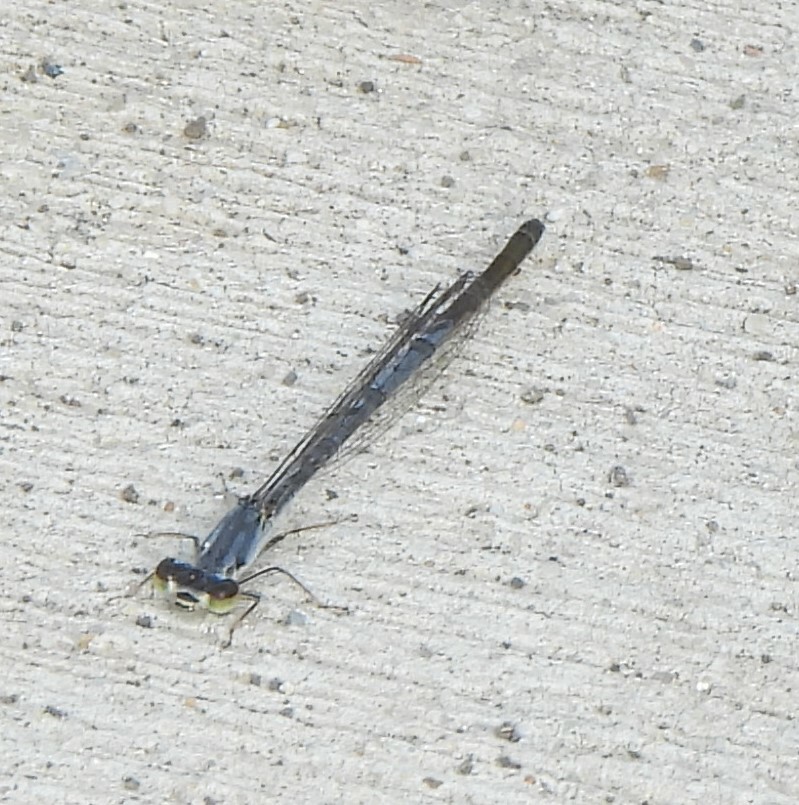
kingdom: Animalia
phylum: Arthropoda
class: Insecta
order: Odonata
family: Coenagrionidae
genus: Ischnura
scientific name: Ischnura posita
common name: Fragile forktail
